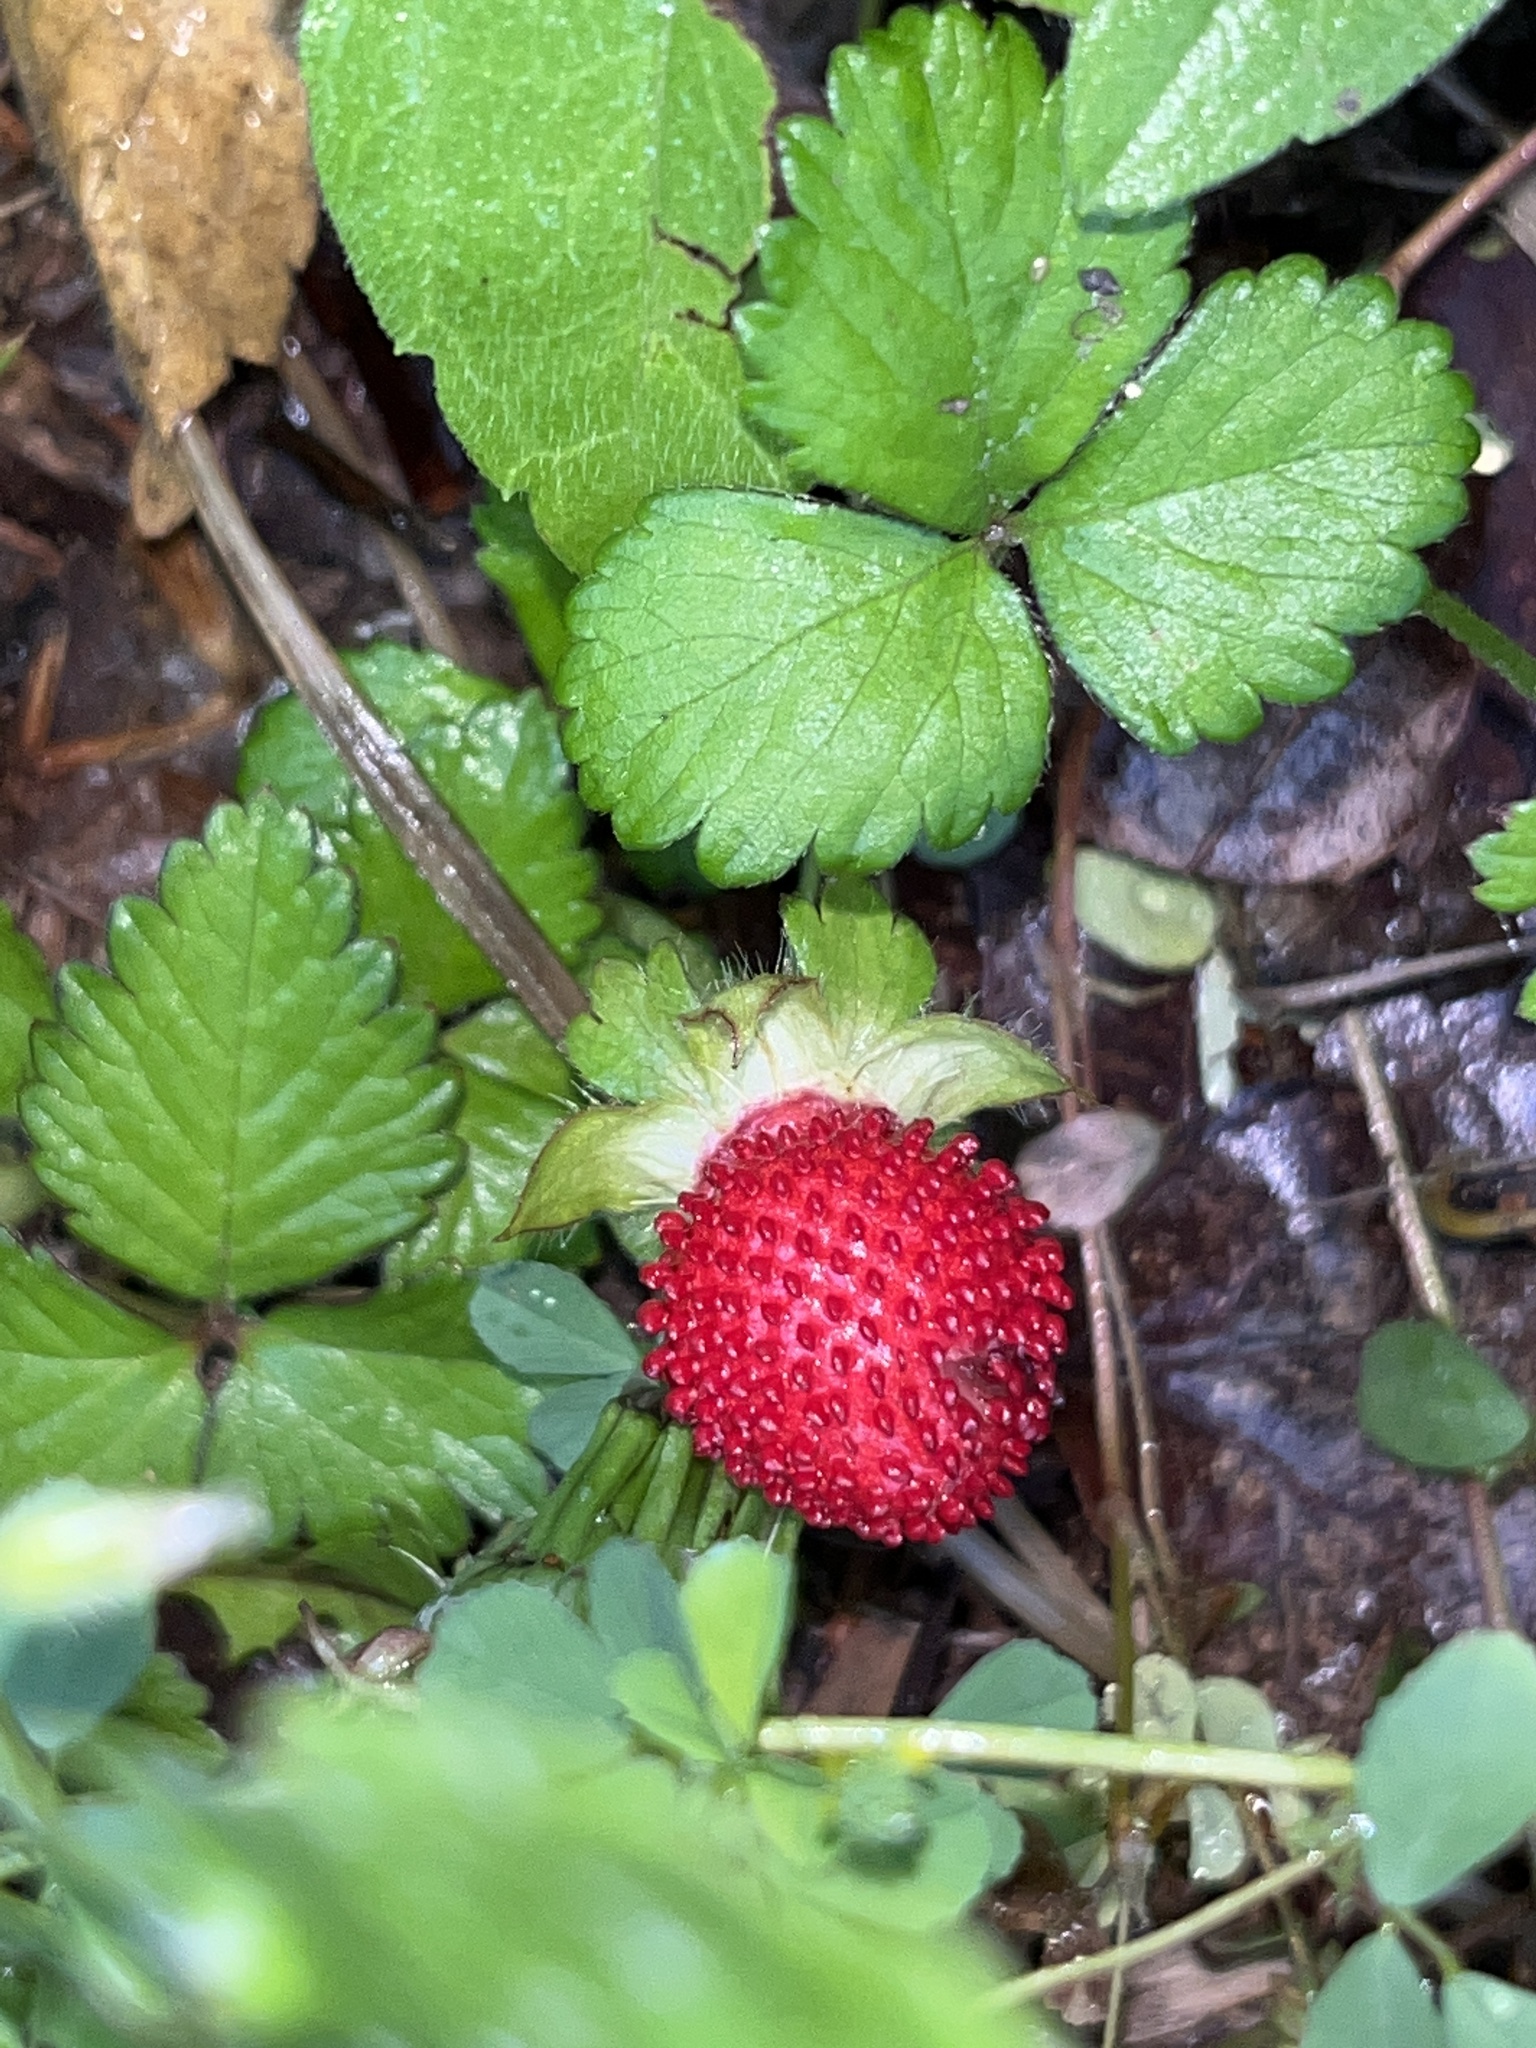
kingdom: Plantae
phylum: Tracheophyta
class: Magnoliopsida
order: Rosales
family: Rosaceae
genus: Potentilla
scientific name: Potentilla indica
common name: Yellow-flowered strawberry
